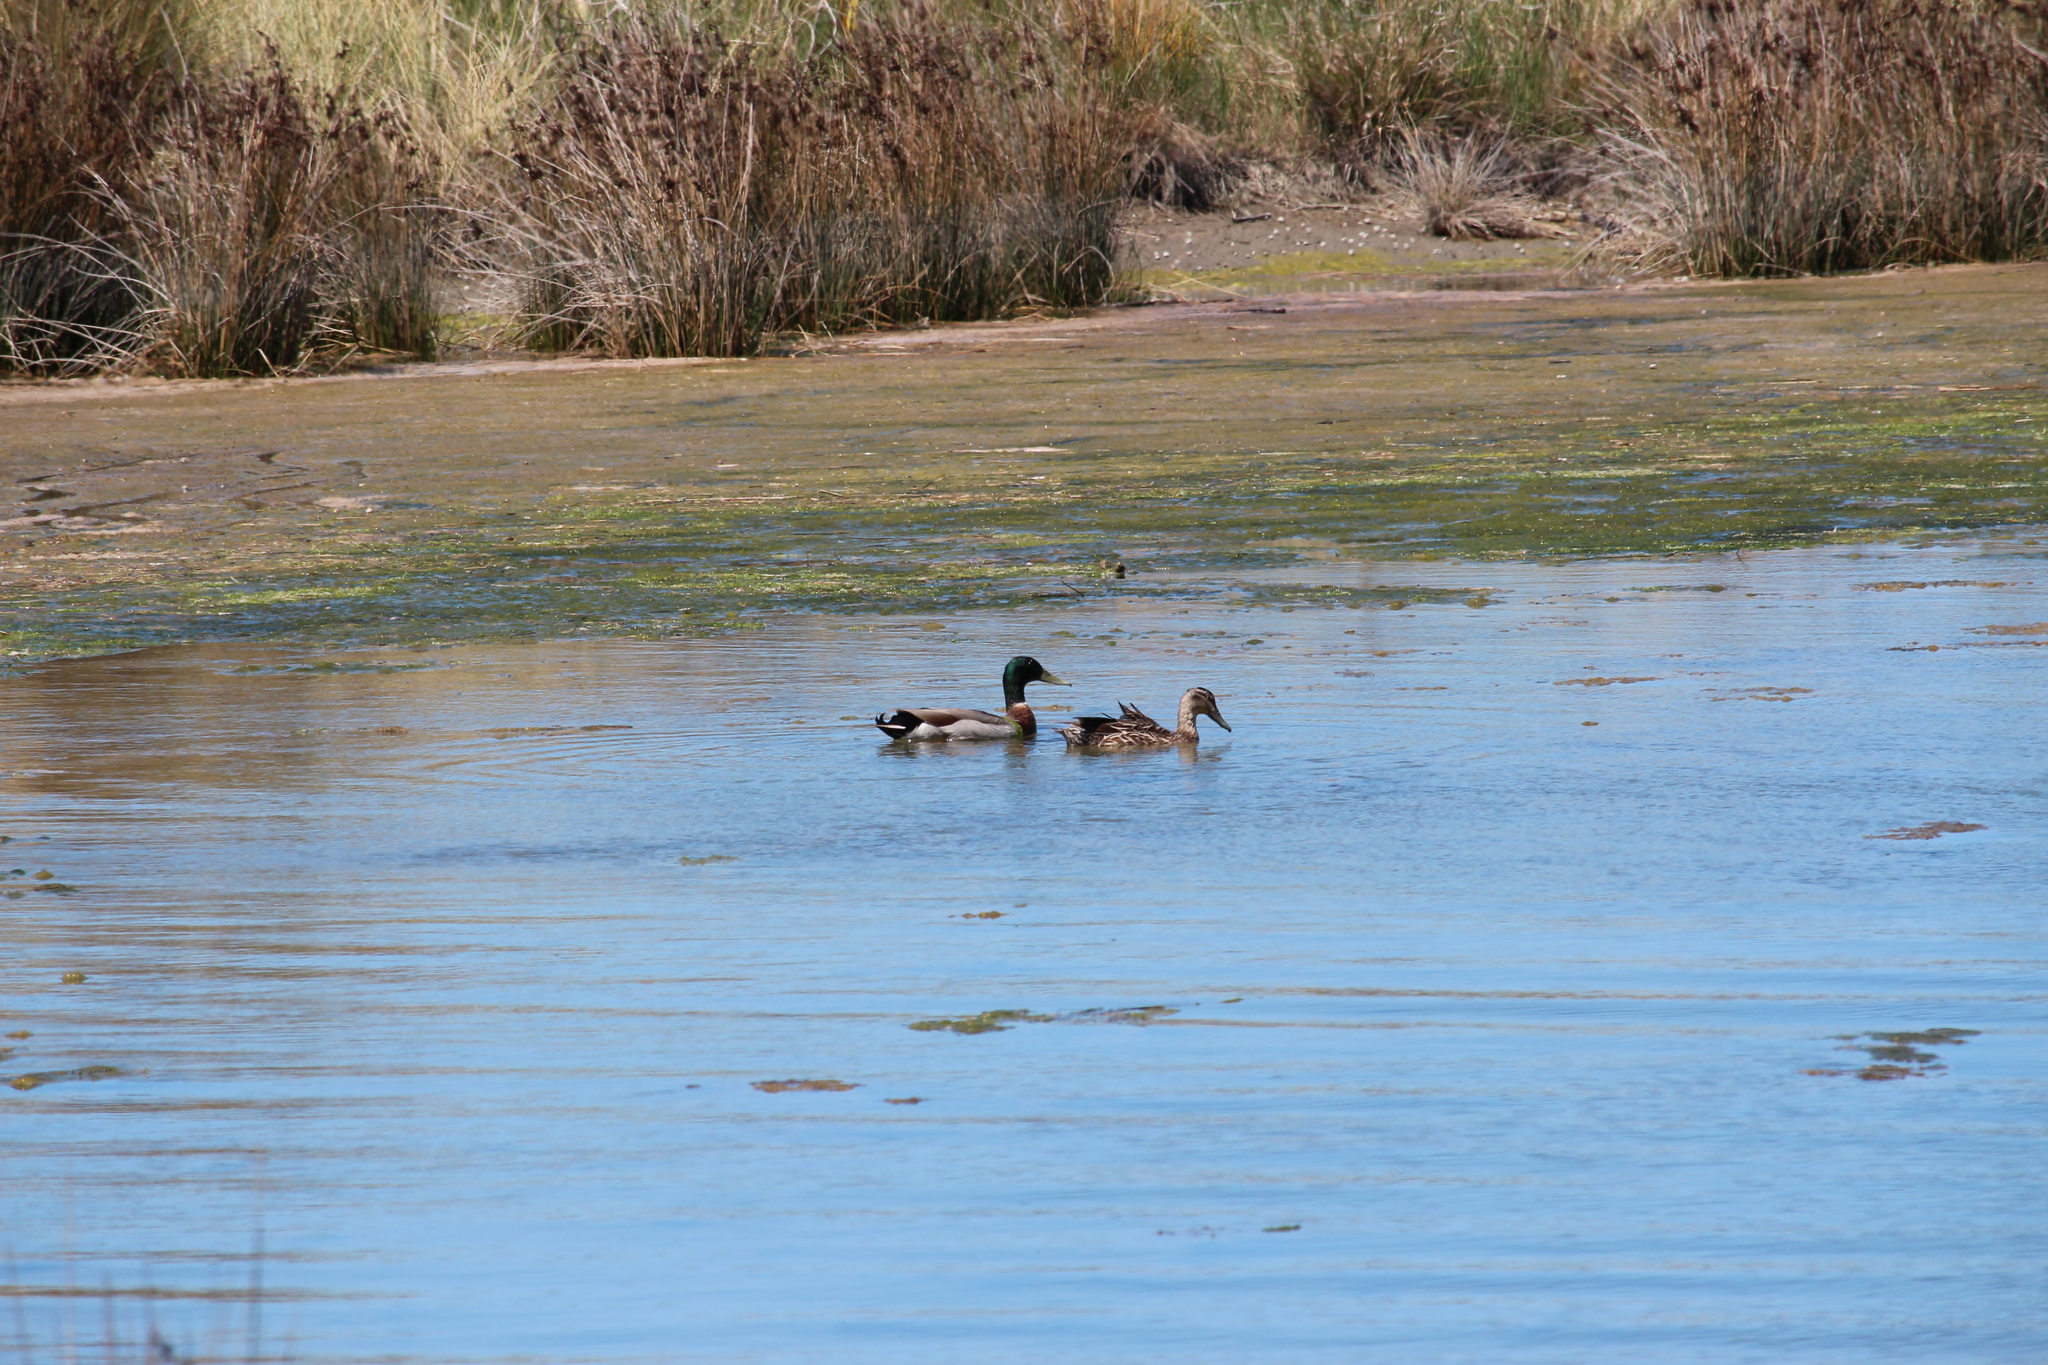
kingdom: Animalia
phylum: Chordata
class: Aves
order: Anseriformes
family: Anatidae
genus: Anas
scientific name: Anas platyrhynchos
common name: Mallard
